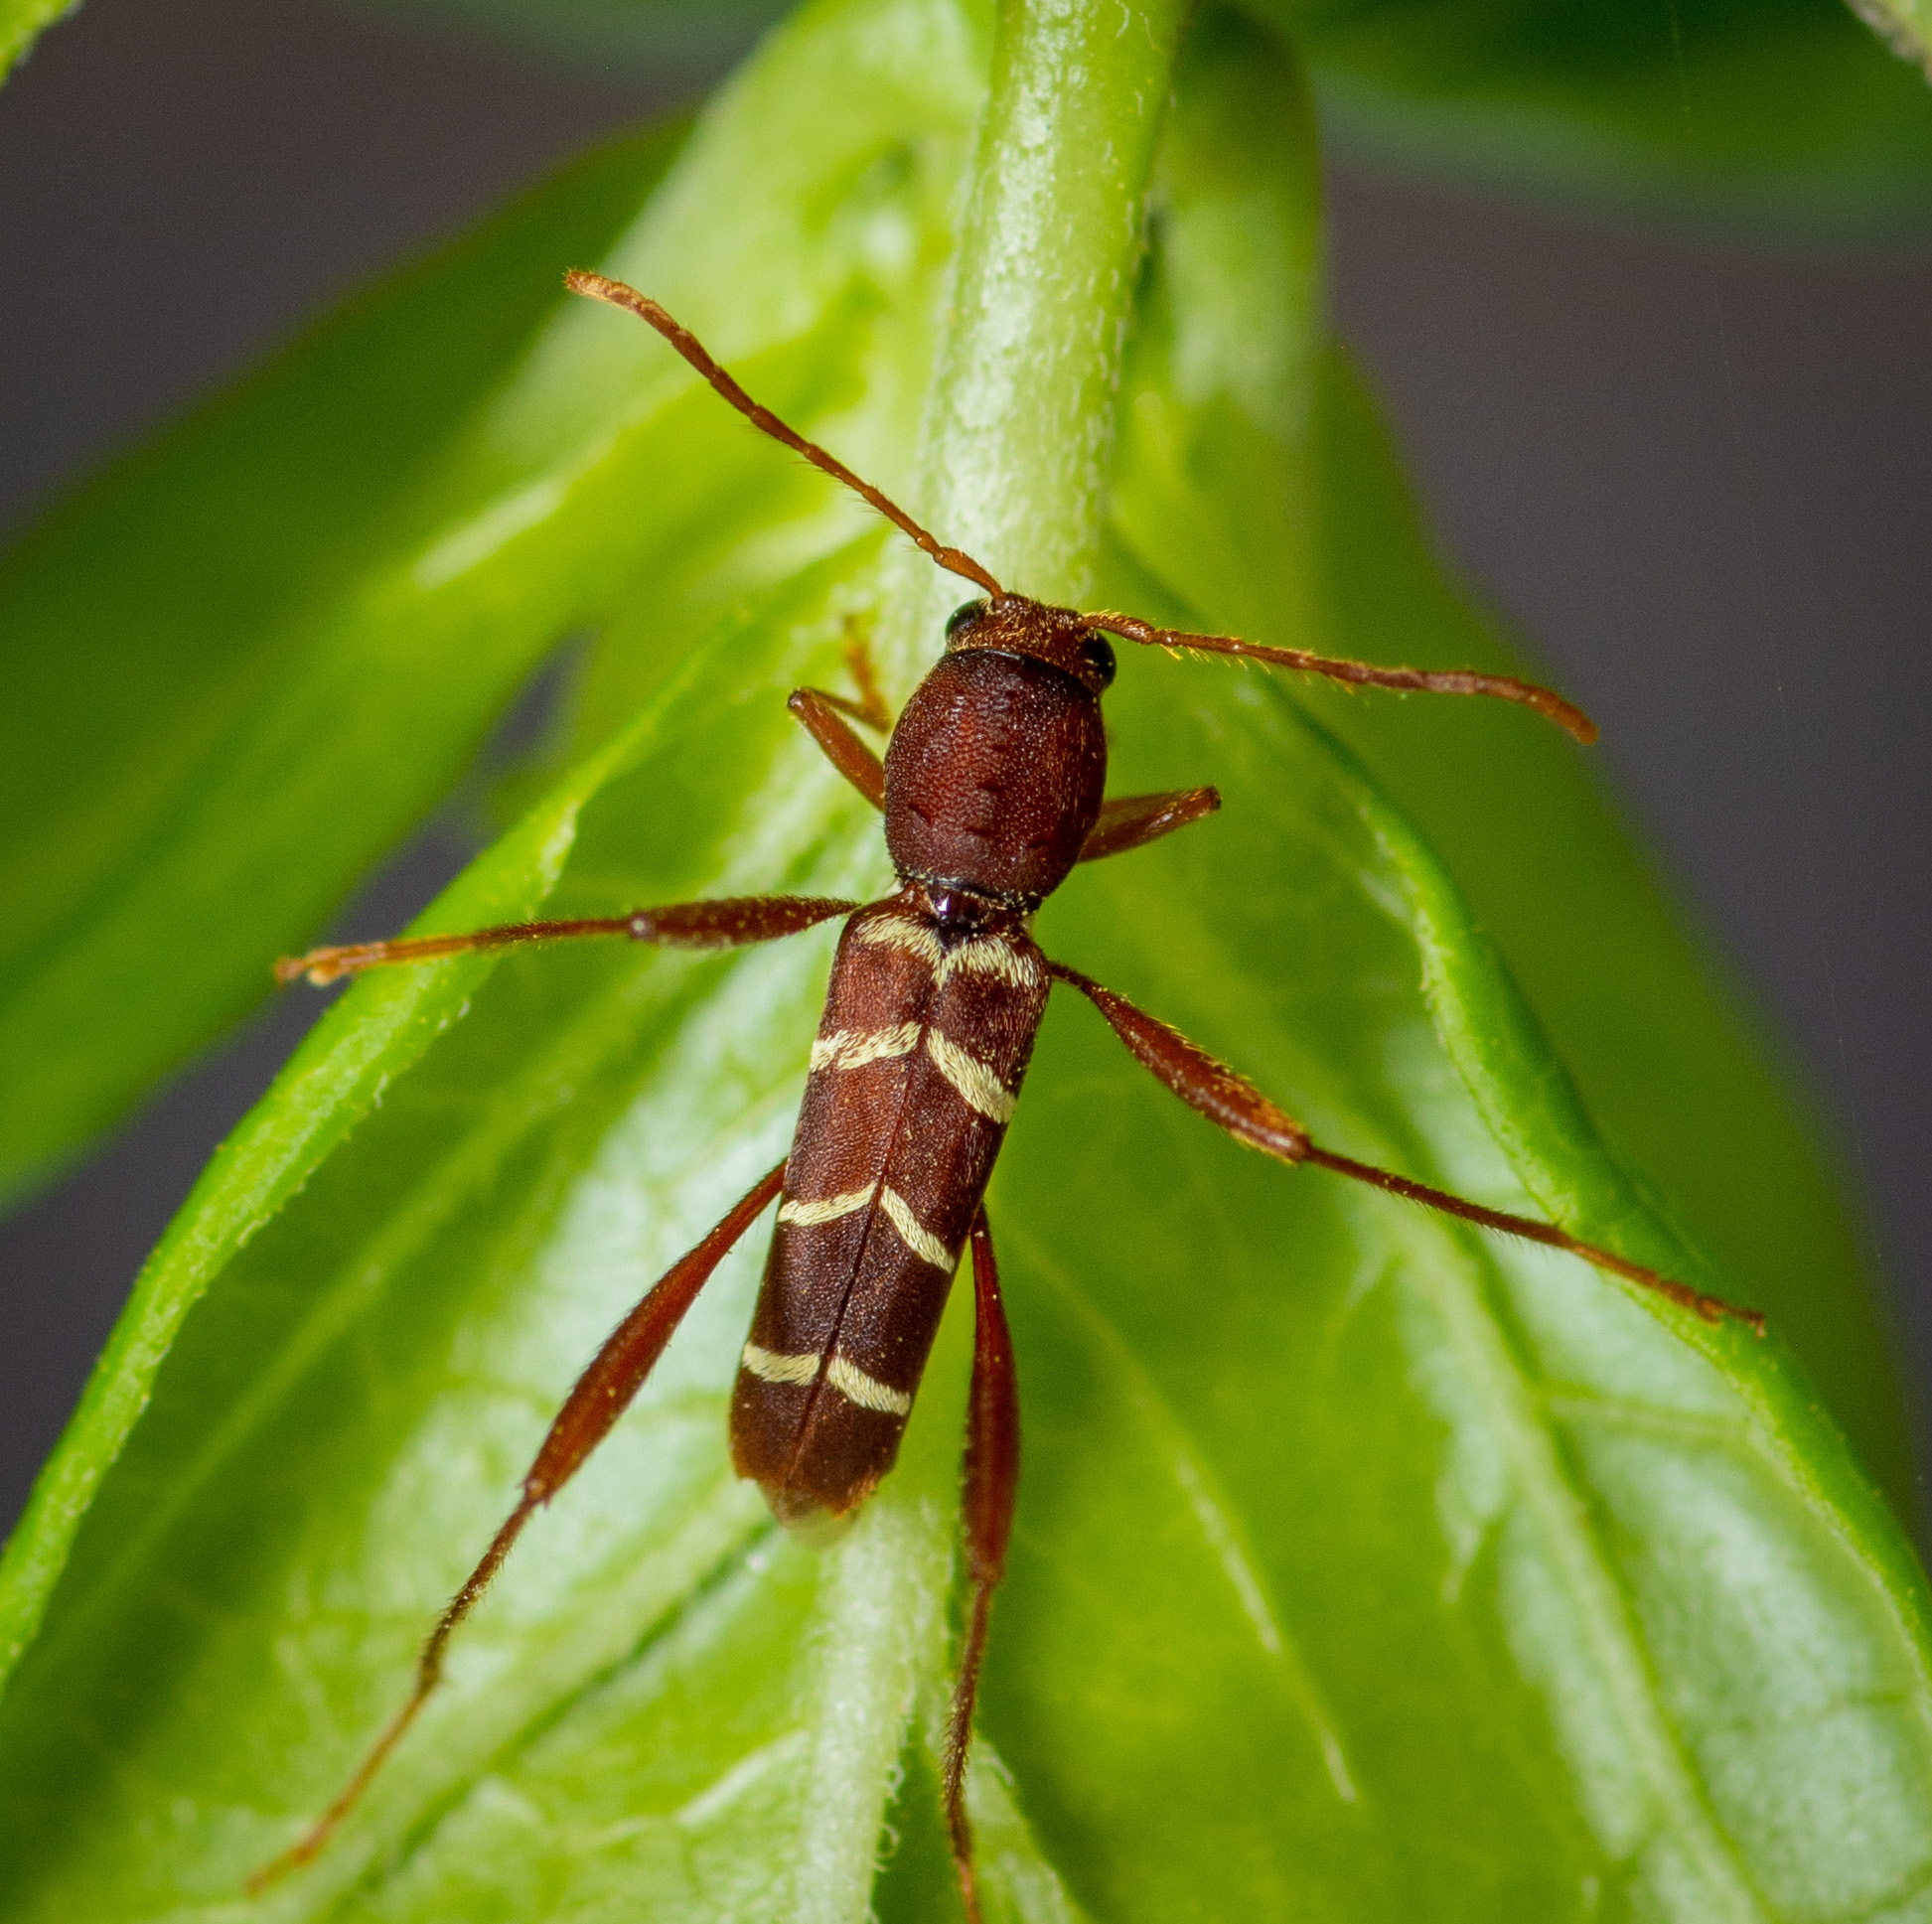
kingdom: Animalia
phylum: Arthropoda
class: Insecta
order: Coleoptera
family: Cerambycidae
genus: Neoclytus
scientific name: Neoclytus acuminatus
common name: Read-headed ash borer
